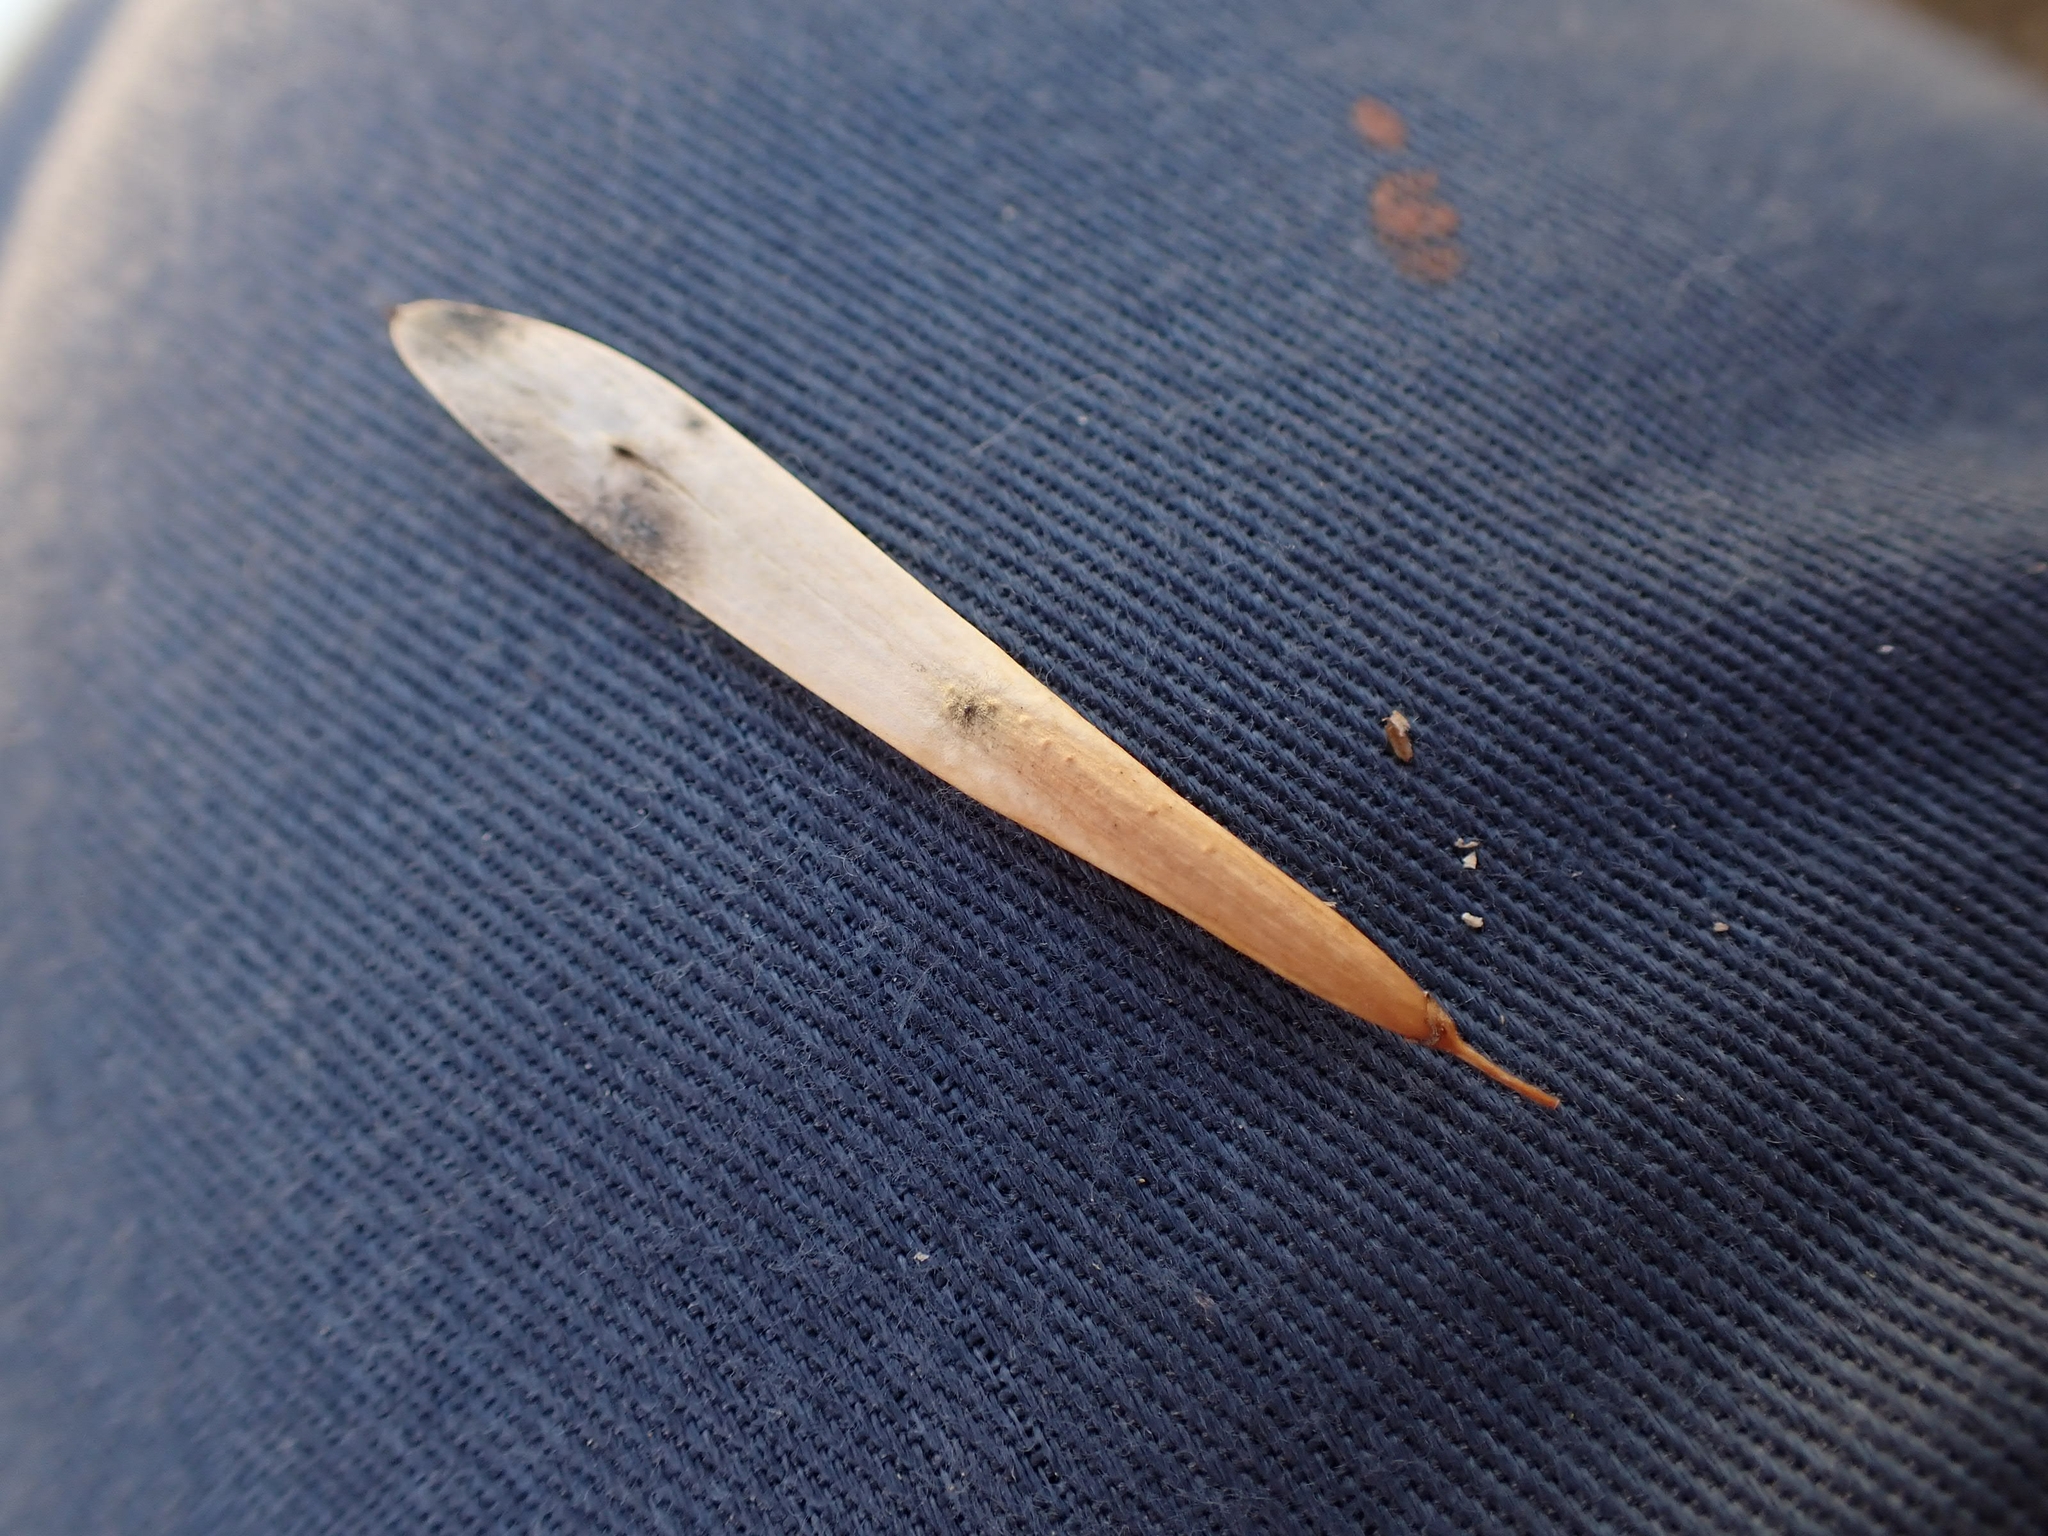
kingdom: Plantae
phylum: Tracheophyta
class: Magnoliopsida
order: Lamiales
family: Oleaceae
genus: Fraxinus
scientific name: Fraxinus pennsylvanica
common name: Green ash
